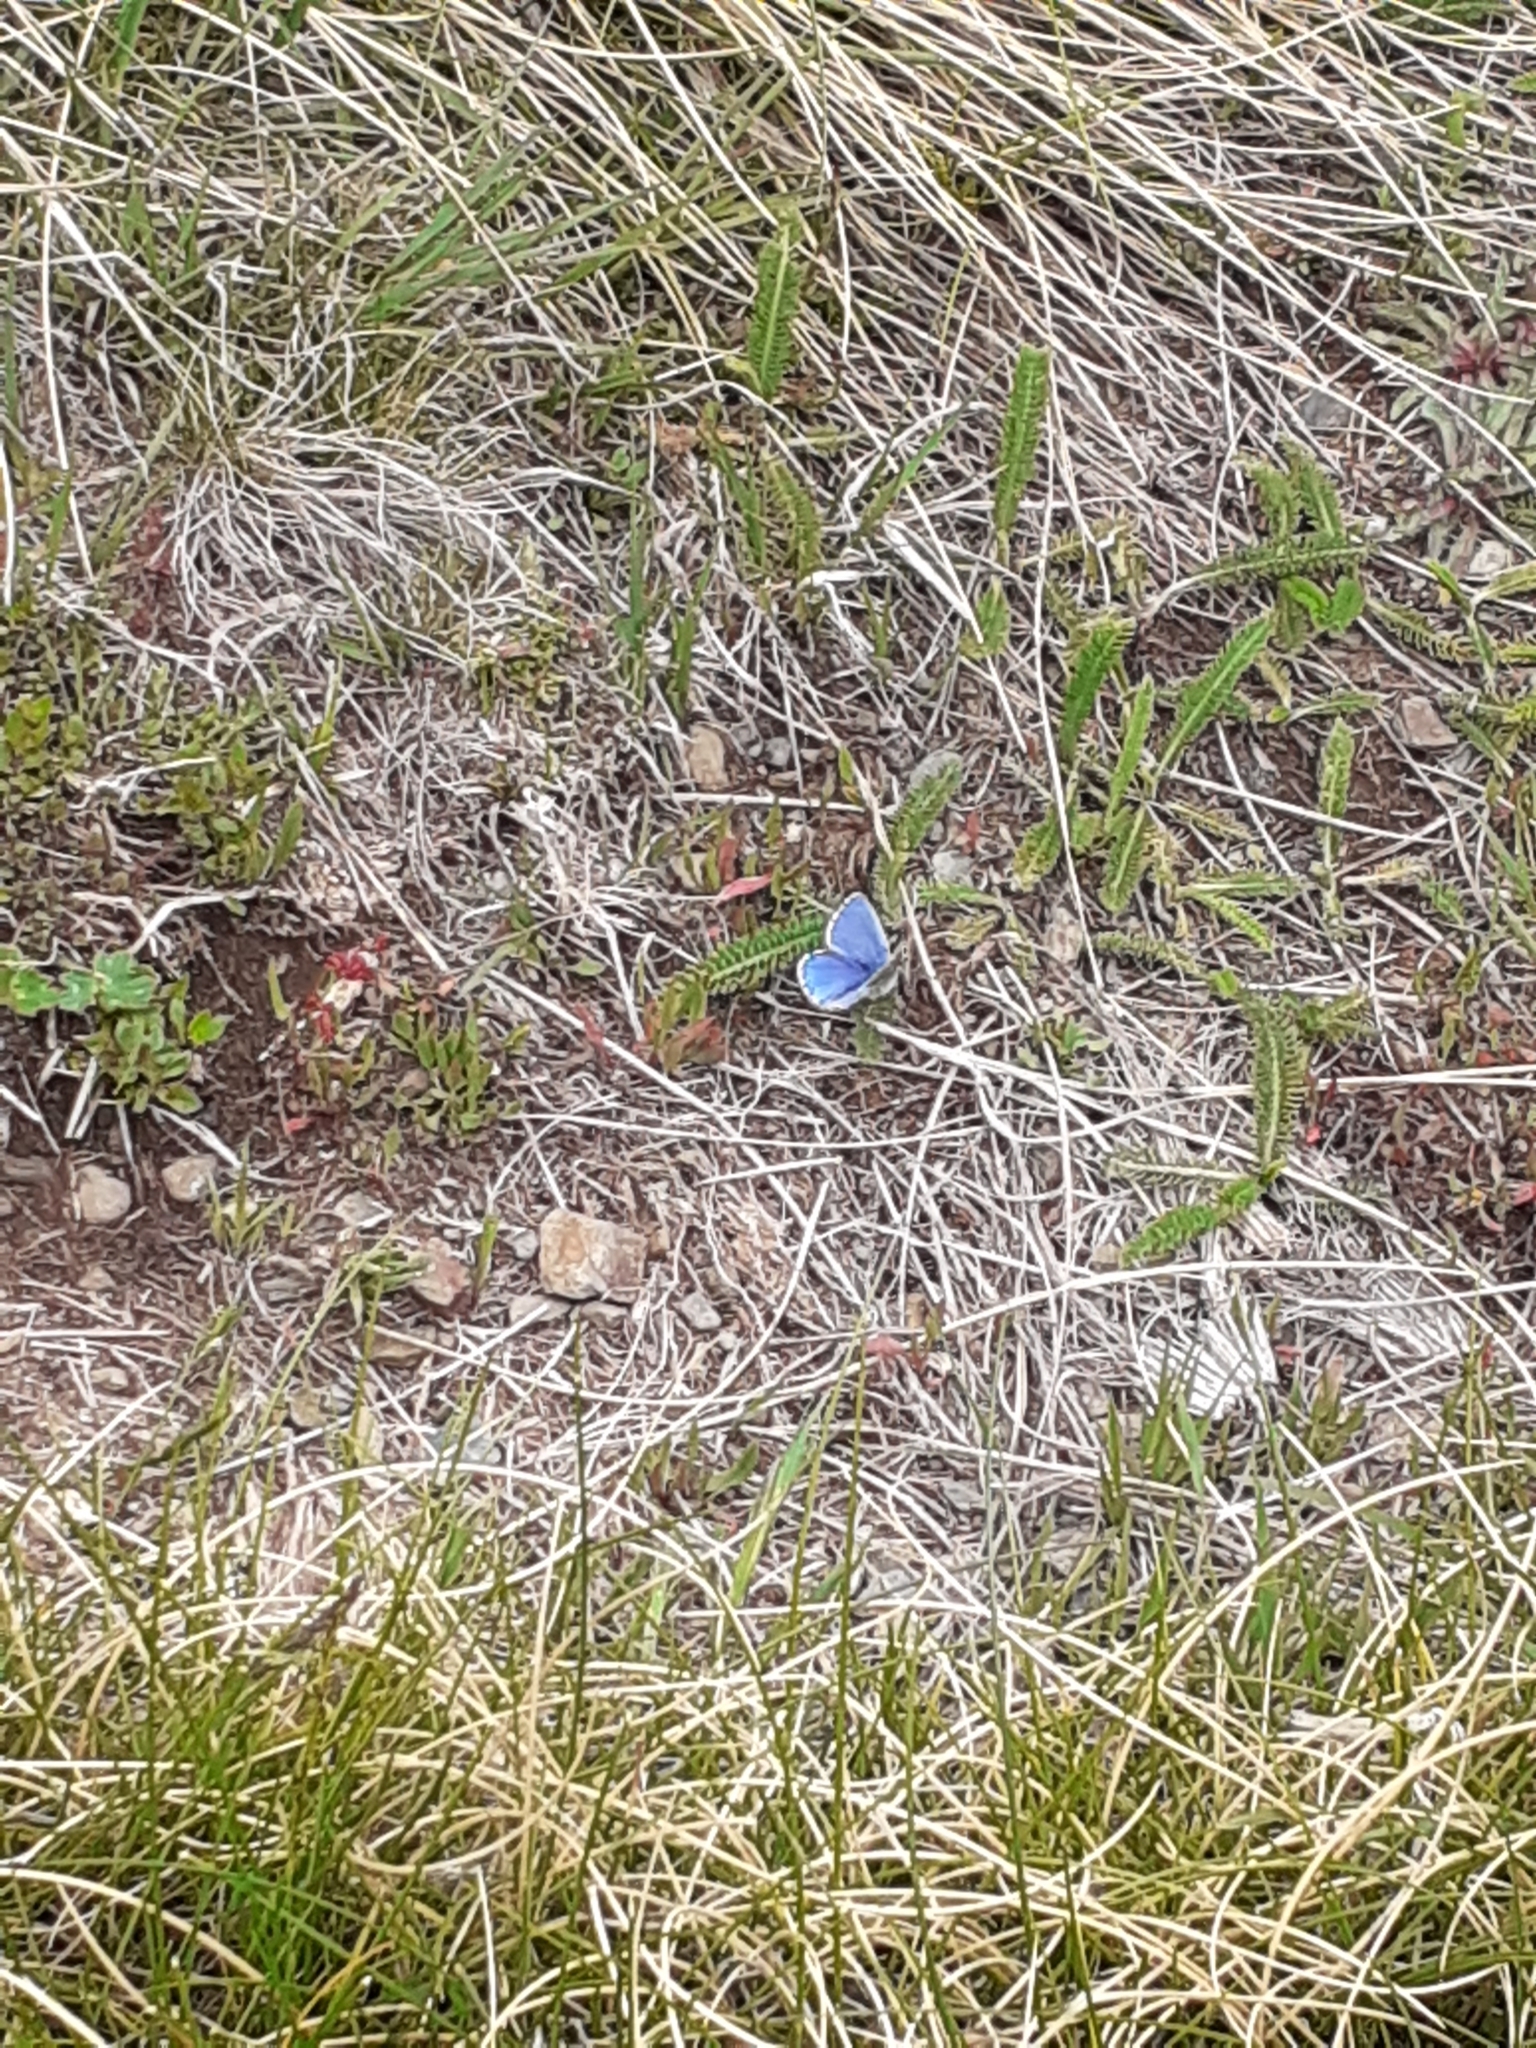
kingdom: Animalia
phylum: Arthropoda
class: Insecta
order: Lepidoptera
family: Lycaenidae
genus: Lysandra
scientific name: Lysandra bellargus
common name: Adonis blue
